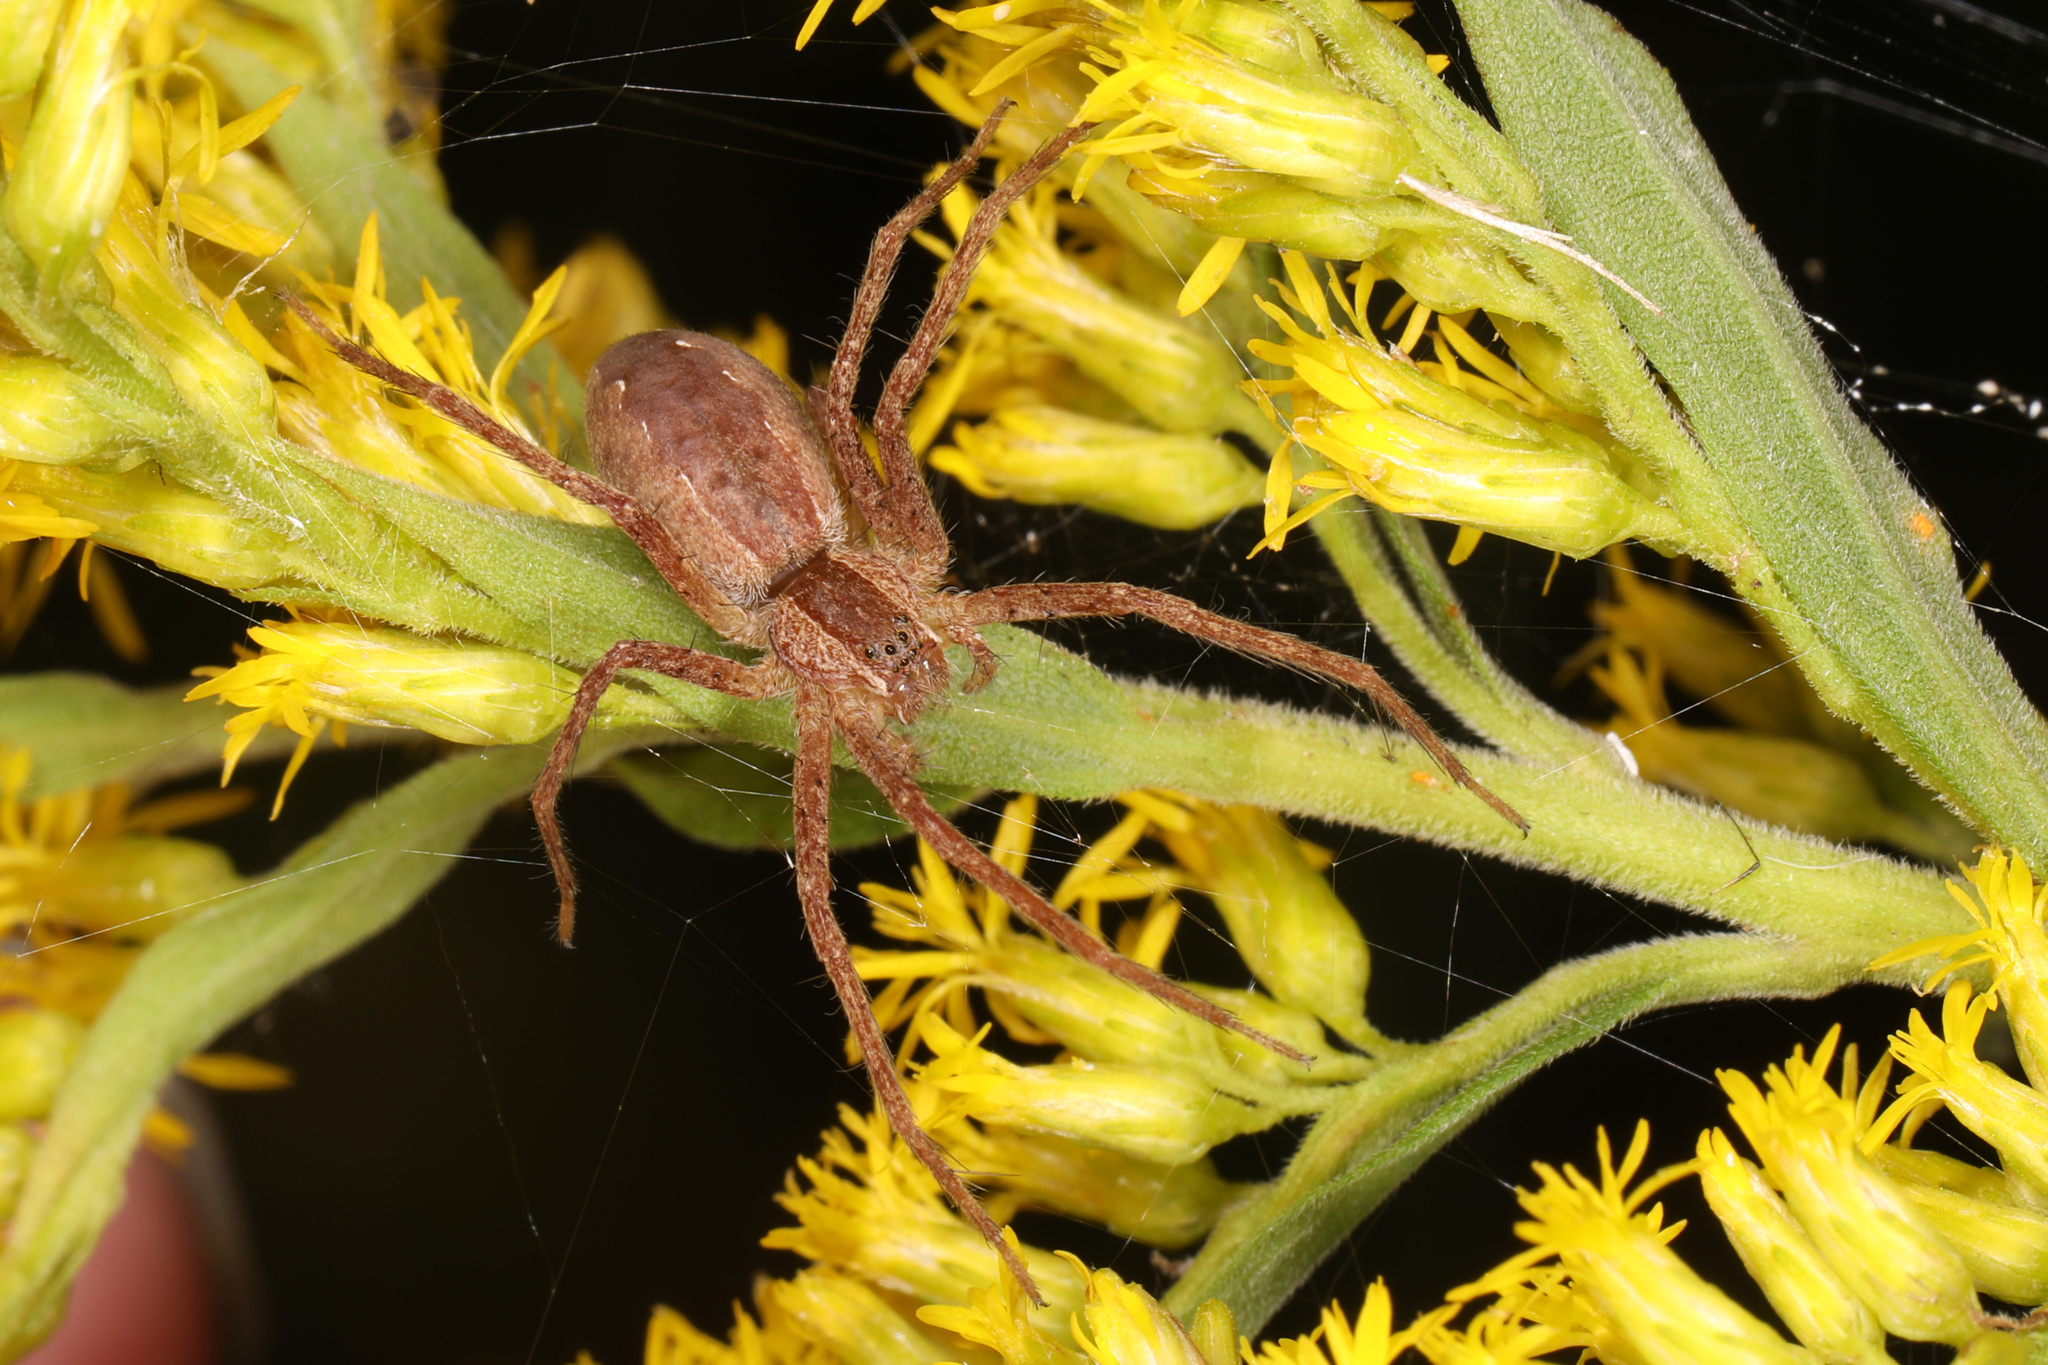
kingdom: Animalia
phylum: Arthropoda
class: Arachnida
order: Araneae
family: Pisauridae
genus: Pisaurina
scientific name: Pisaurina mira
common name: American nursery web spider
